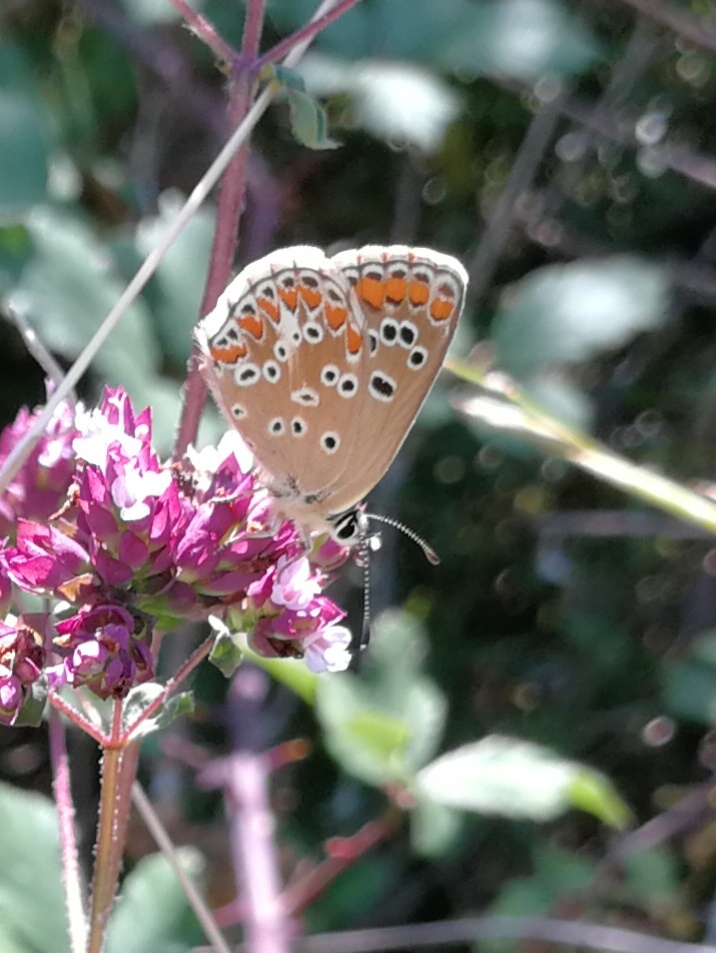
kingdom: Animalia
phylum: Arthropoda
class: Insecta
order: Lepidoptera
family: Lycaenidae
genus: Aricia
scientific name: Aricia cramera
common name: Eschscholtz´s brown  argus
